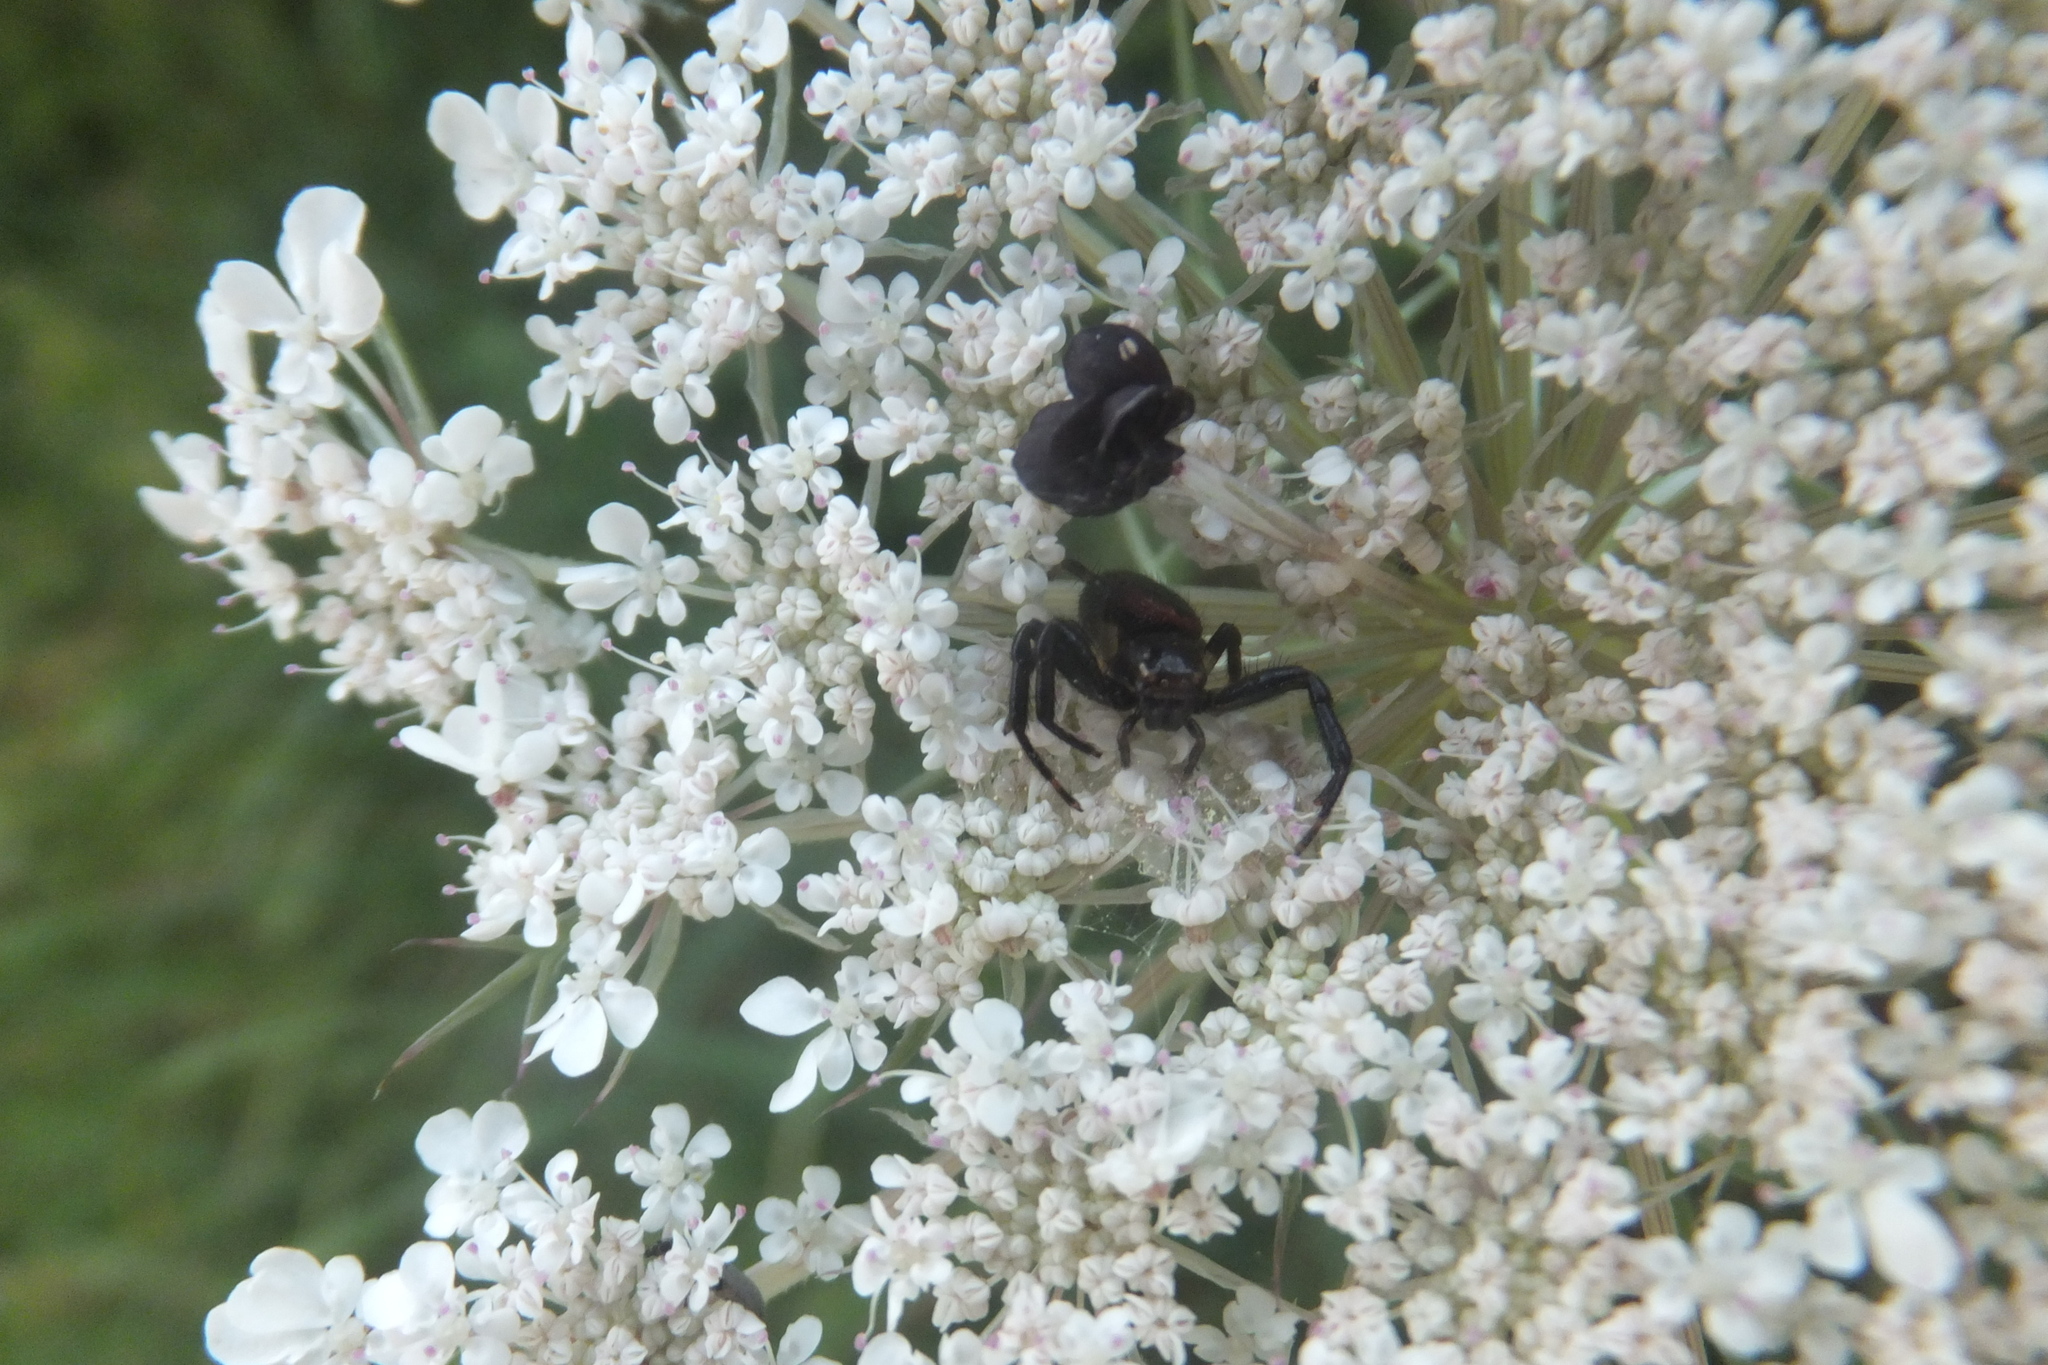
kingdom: Animalia
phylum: Arthropoda
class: Arachnida
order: Araneae
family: Thomisidae
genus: Synema
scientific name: Synema globosum
